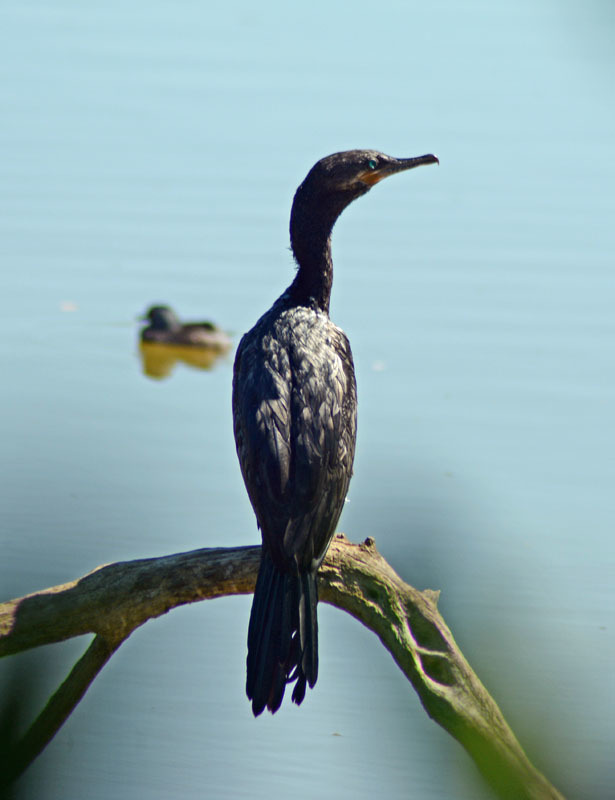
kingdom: Animalia
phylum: Chordata
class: Aves
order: Suliformes
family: Phalacrocoracidae
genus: Phalacrocorax
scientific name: Phalacrocorax brasilianus
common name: Neotropic cormorant
